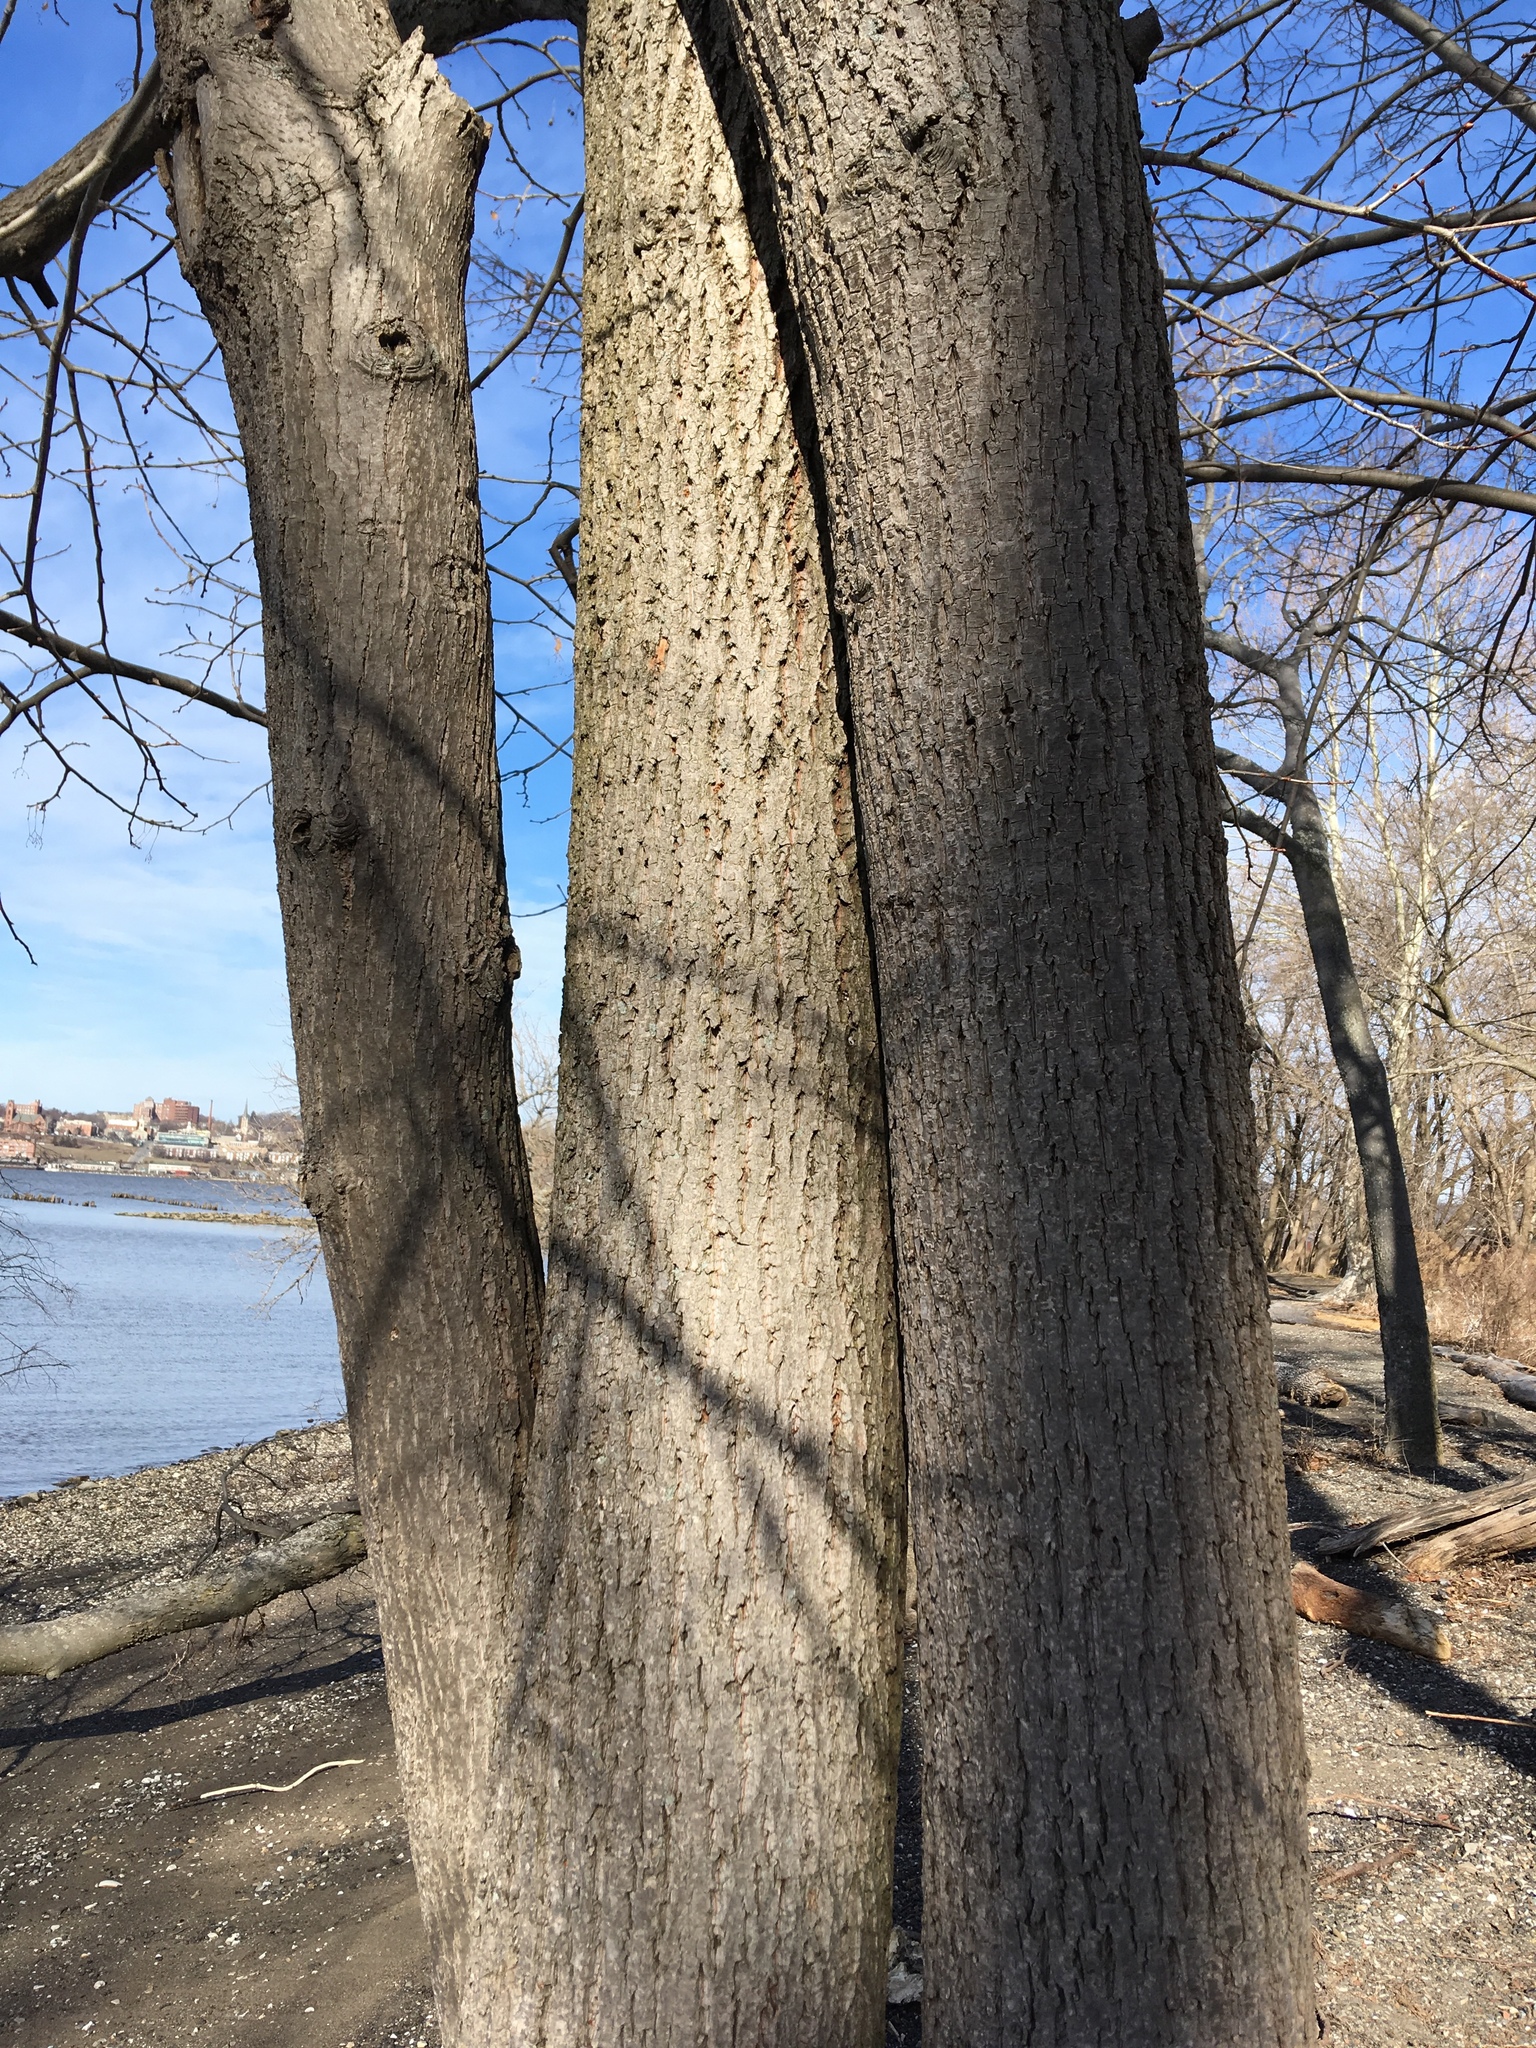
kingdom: Plantae
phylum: Tracheophyta
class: Magnoliopsida
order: Malvales
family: Malvaceae
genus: Tilia
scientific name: Tilia americana
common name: Basswood
